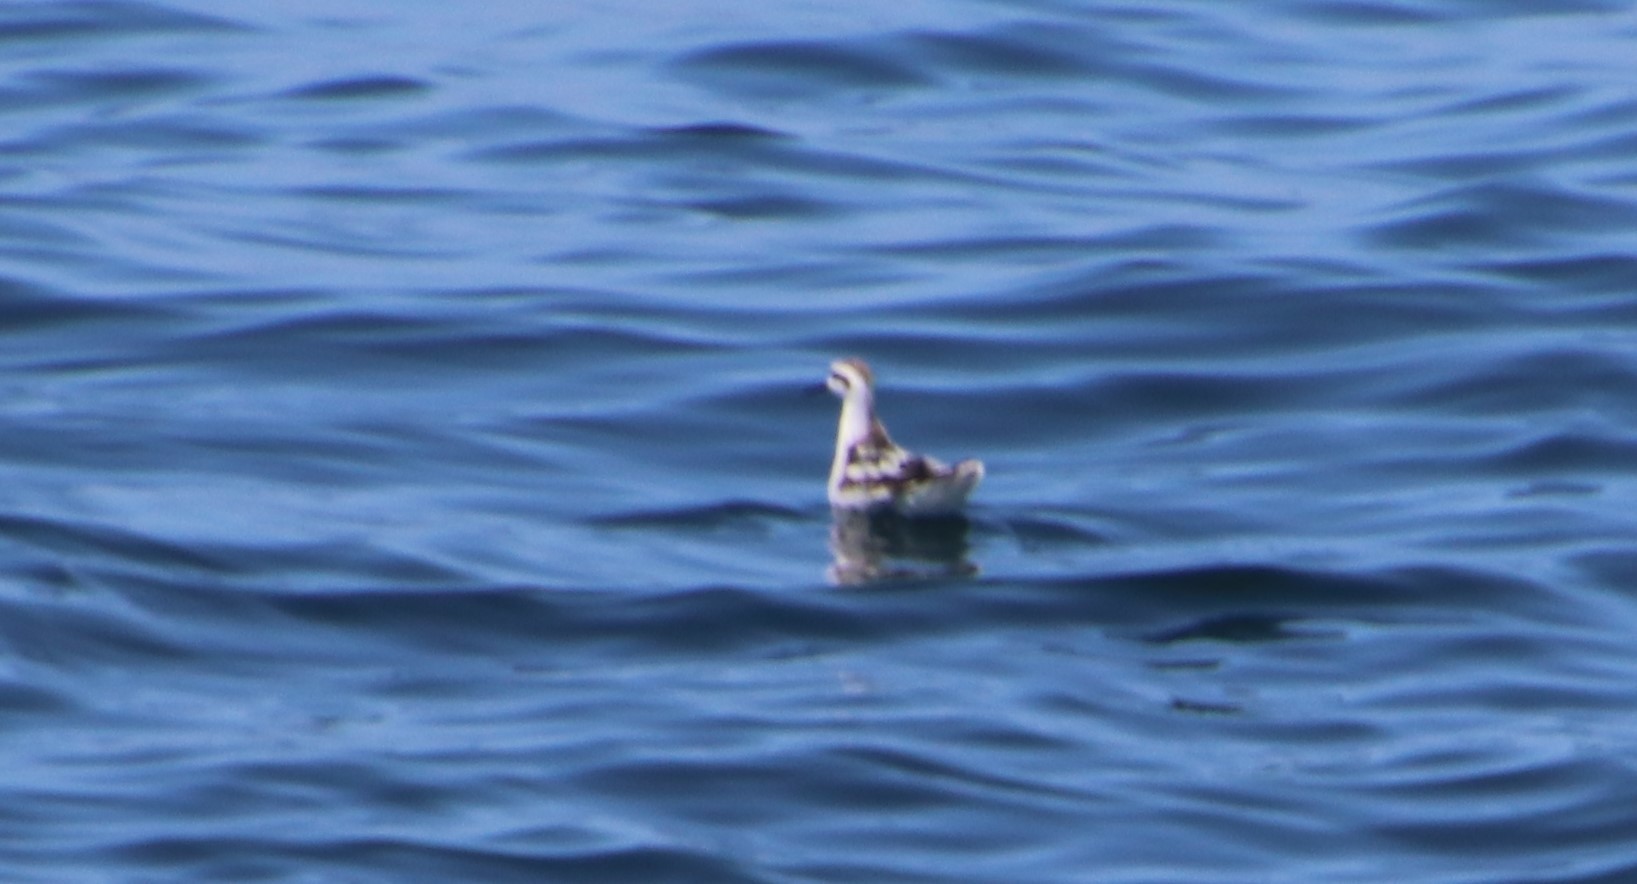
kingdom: Animalia
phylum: Chordata
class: Aves
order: Charadriiformes
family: Scolopacidae
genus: Phalaropus
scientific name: Phalaropus lobatus
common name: Red-necked phalarope
